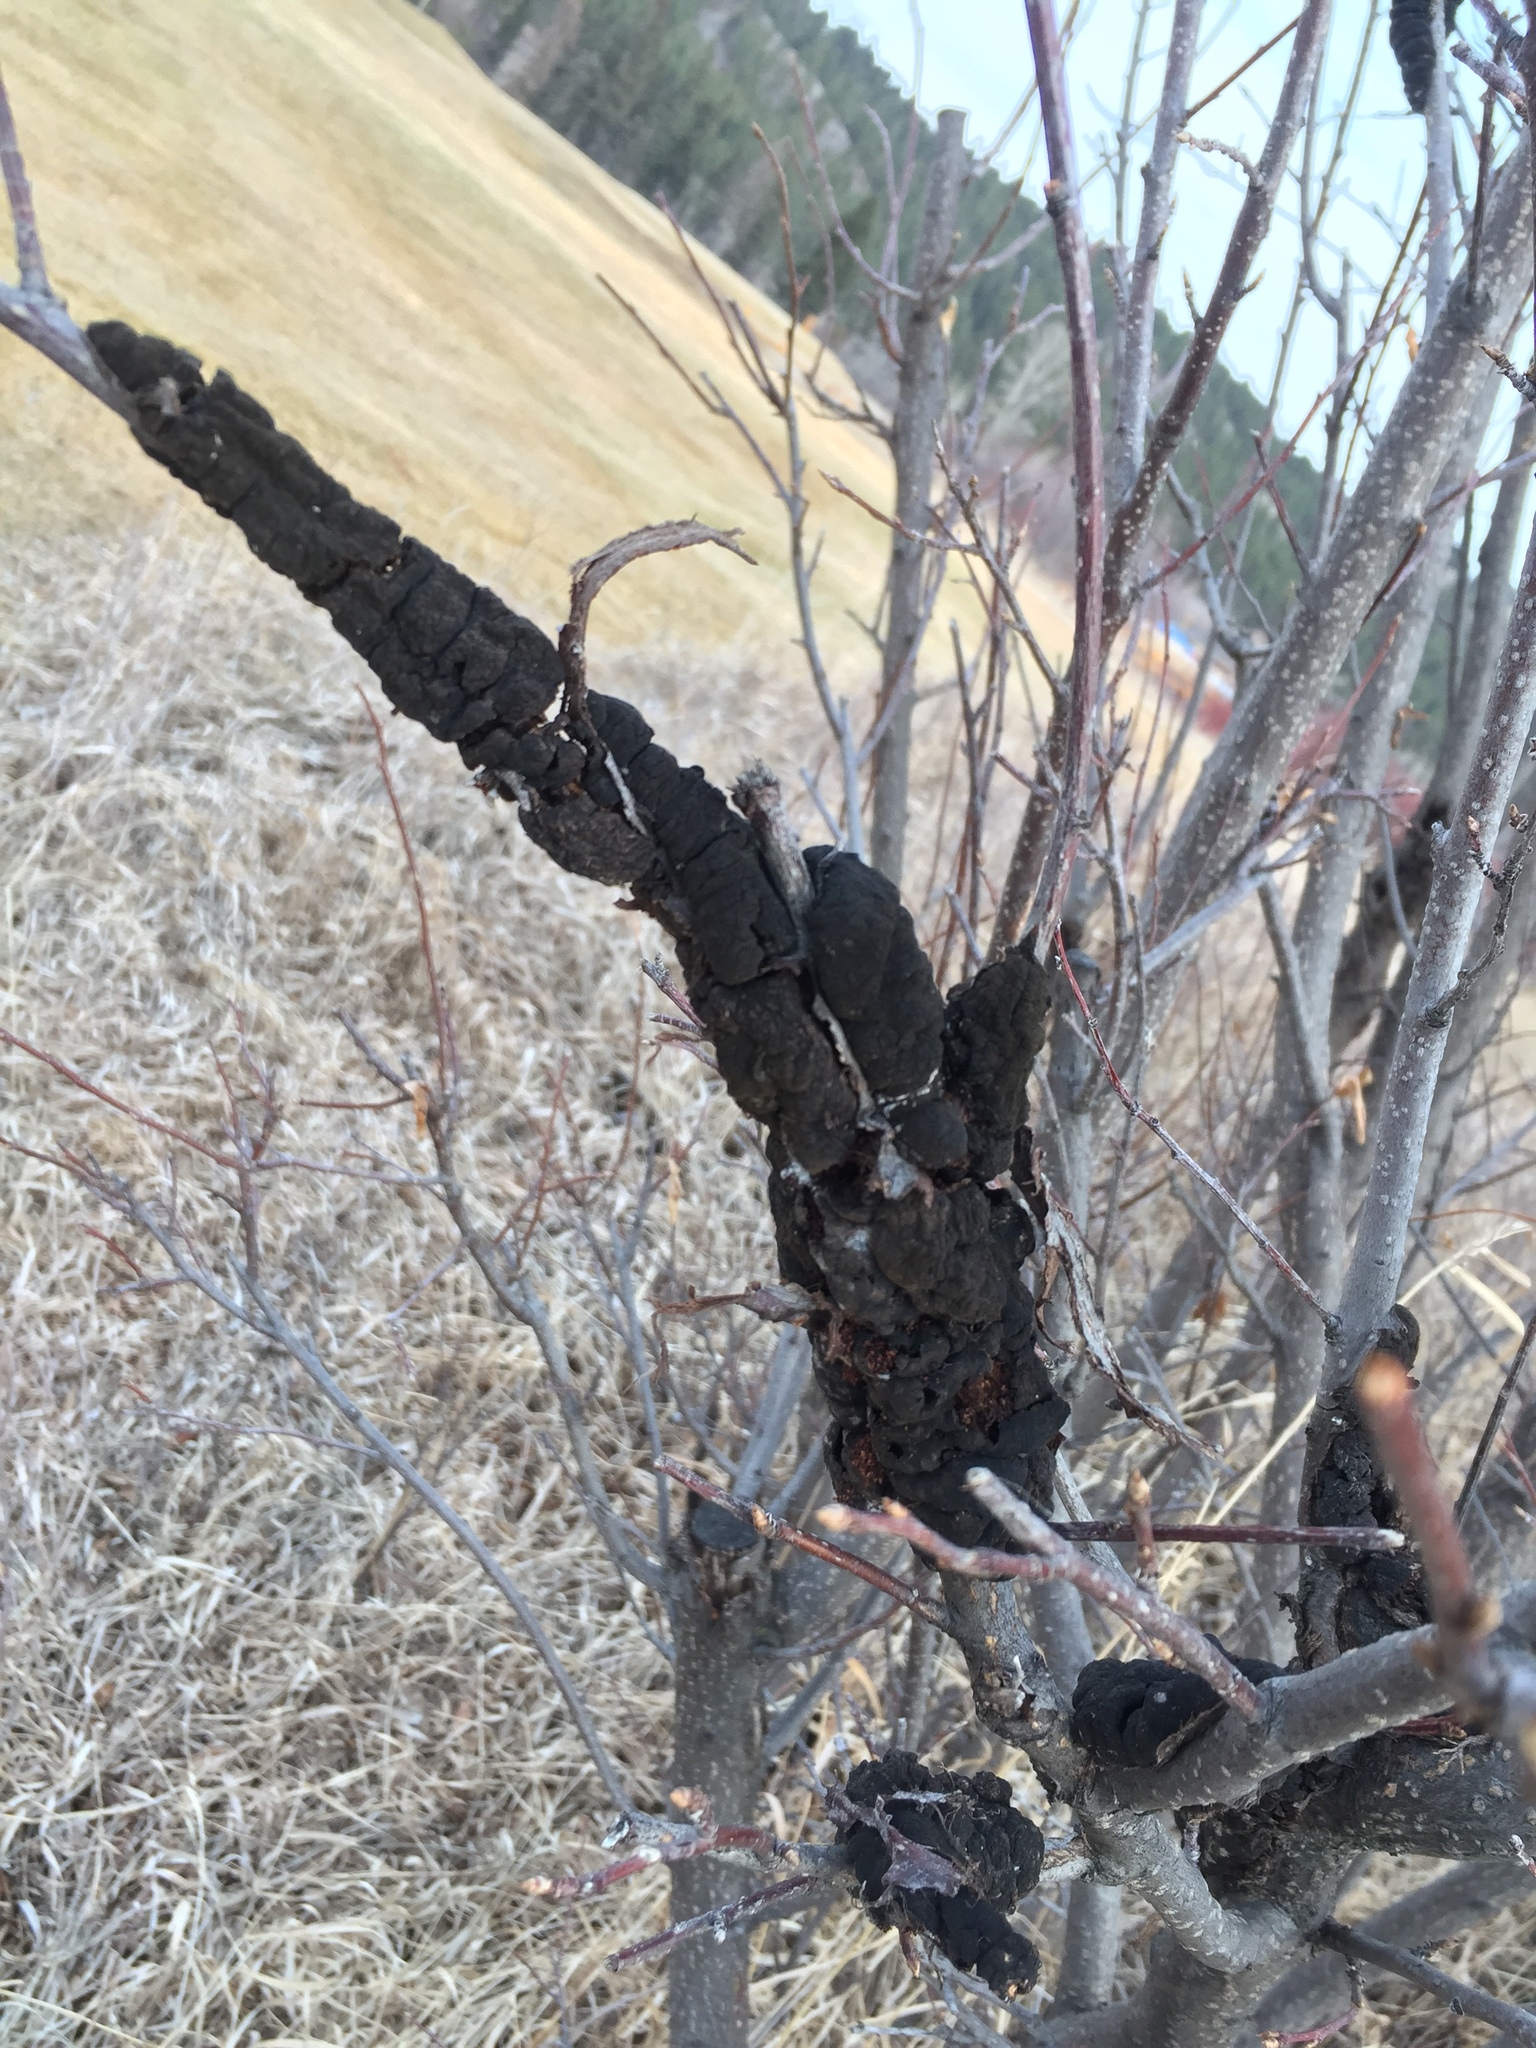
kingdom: Fungi
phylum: Ascomycota
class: Dothideomycetes
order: Venturiales
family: Venturiaceae
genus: Apiosporina
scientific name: Apiosporina morbosa
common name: Black knot
